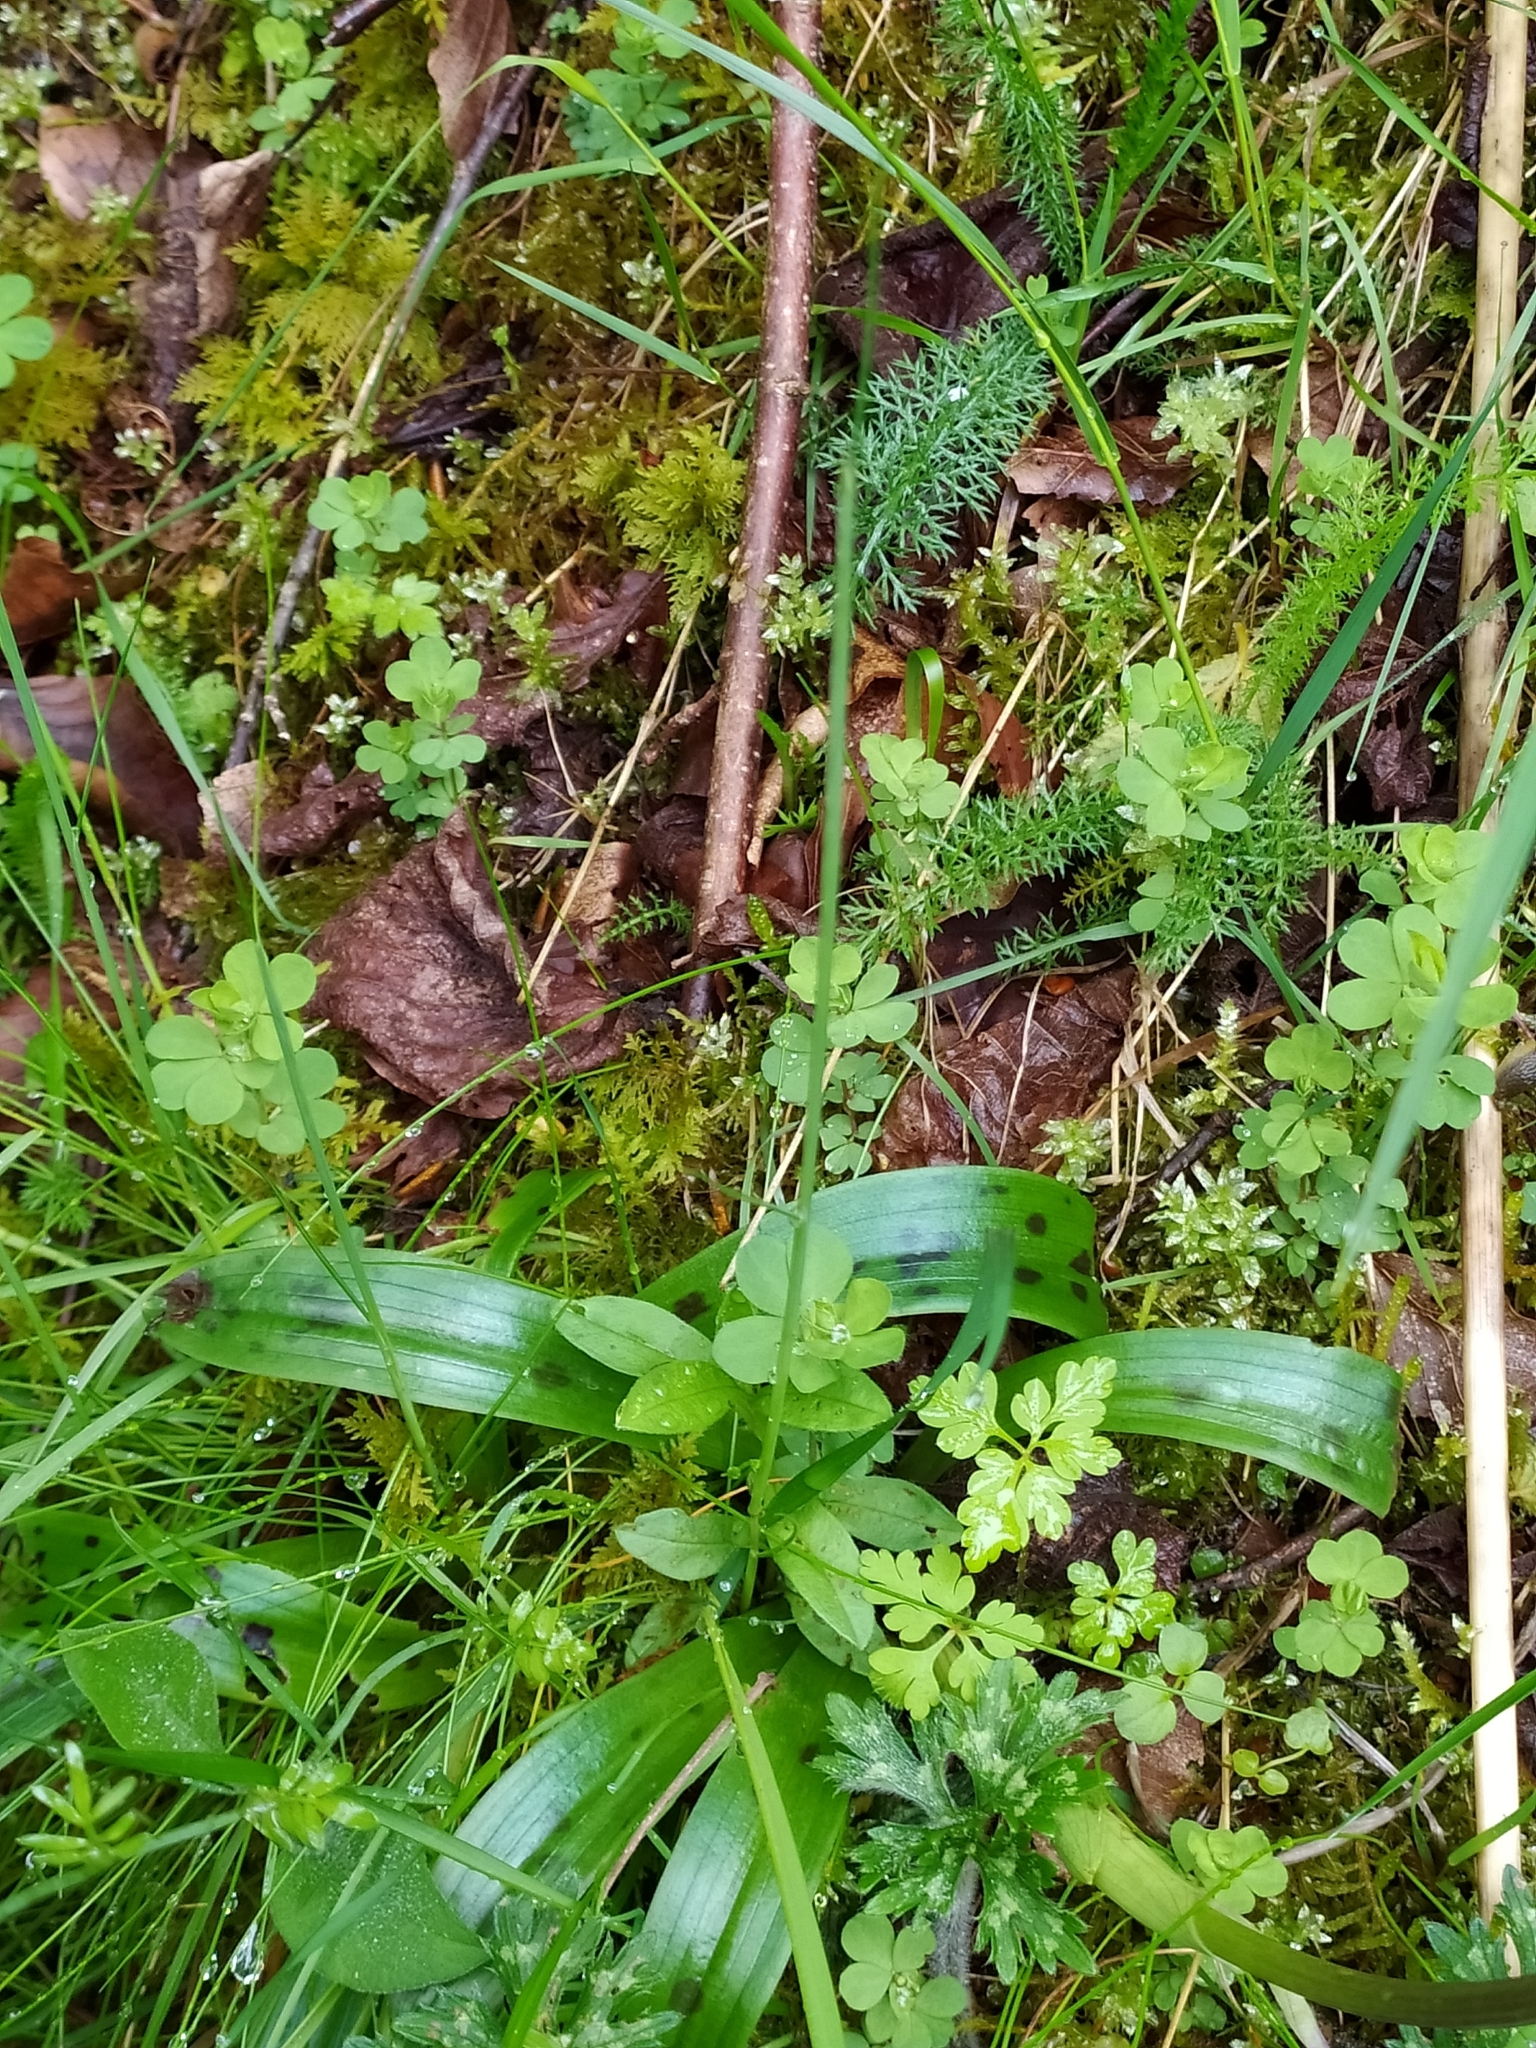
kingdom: Plantae
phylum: Tracheophyta
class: Liliopsida
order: Asparagales
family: Orchidaceae
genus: Orchis
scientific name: Orchis mascula
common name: Early-purple orchid
